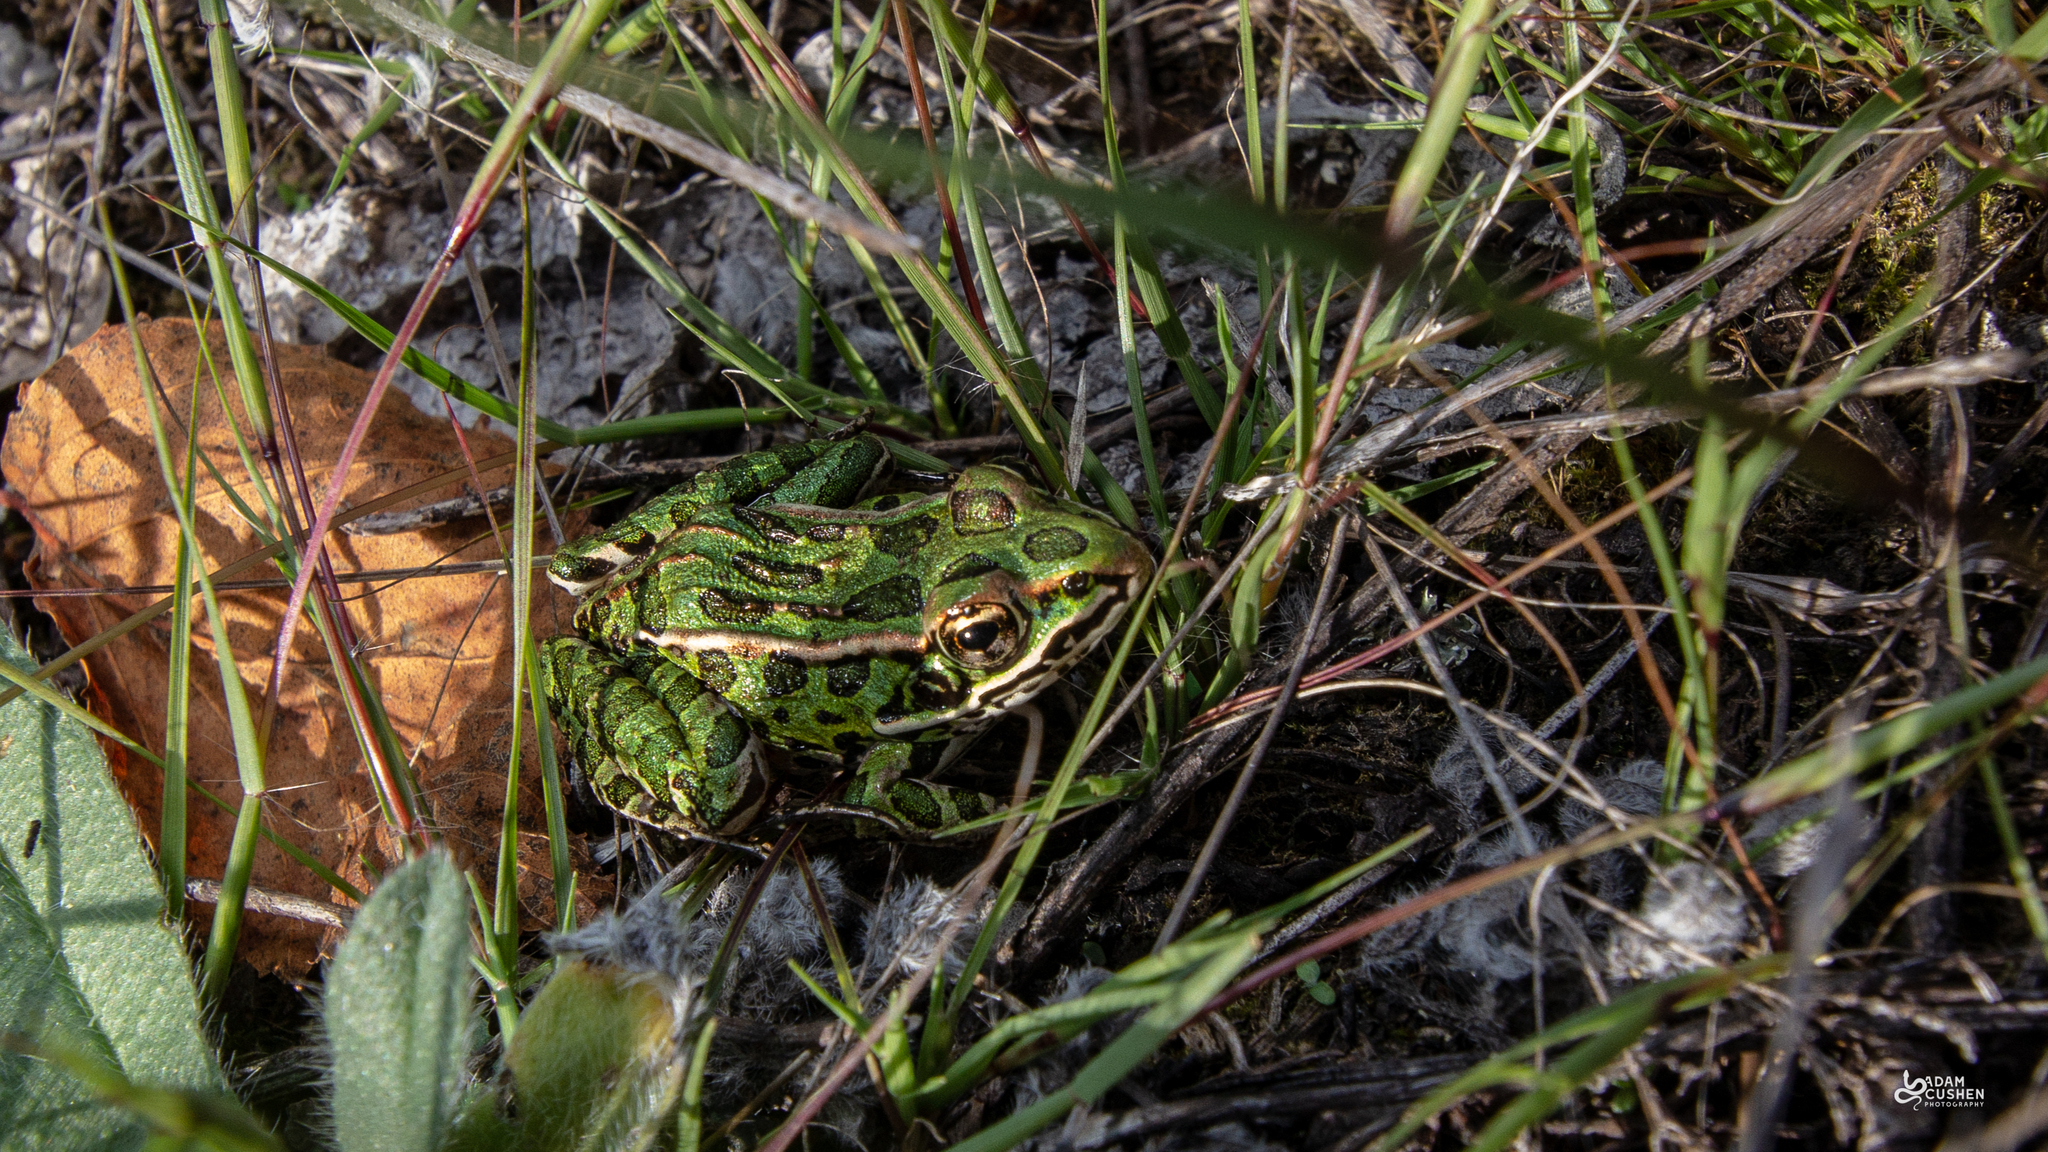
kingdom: Animalia
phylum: Chordata
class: Amphibia
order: Anura
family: Ranidae
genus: Lithobates
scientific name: Lithobates pipiens
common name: Northern leopard frog
